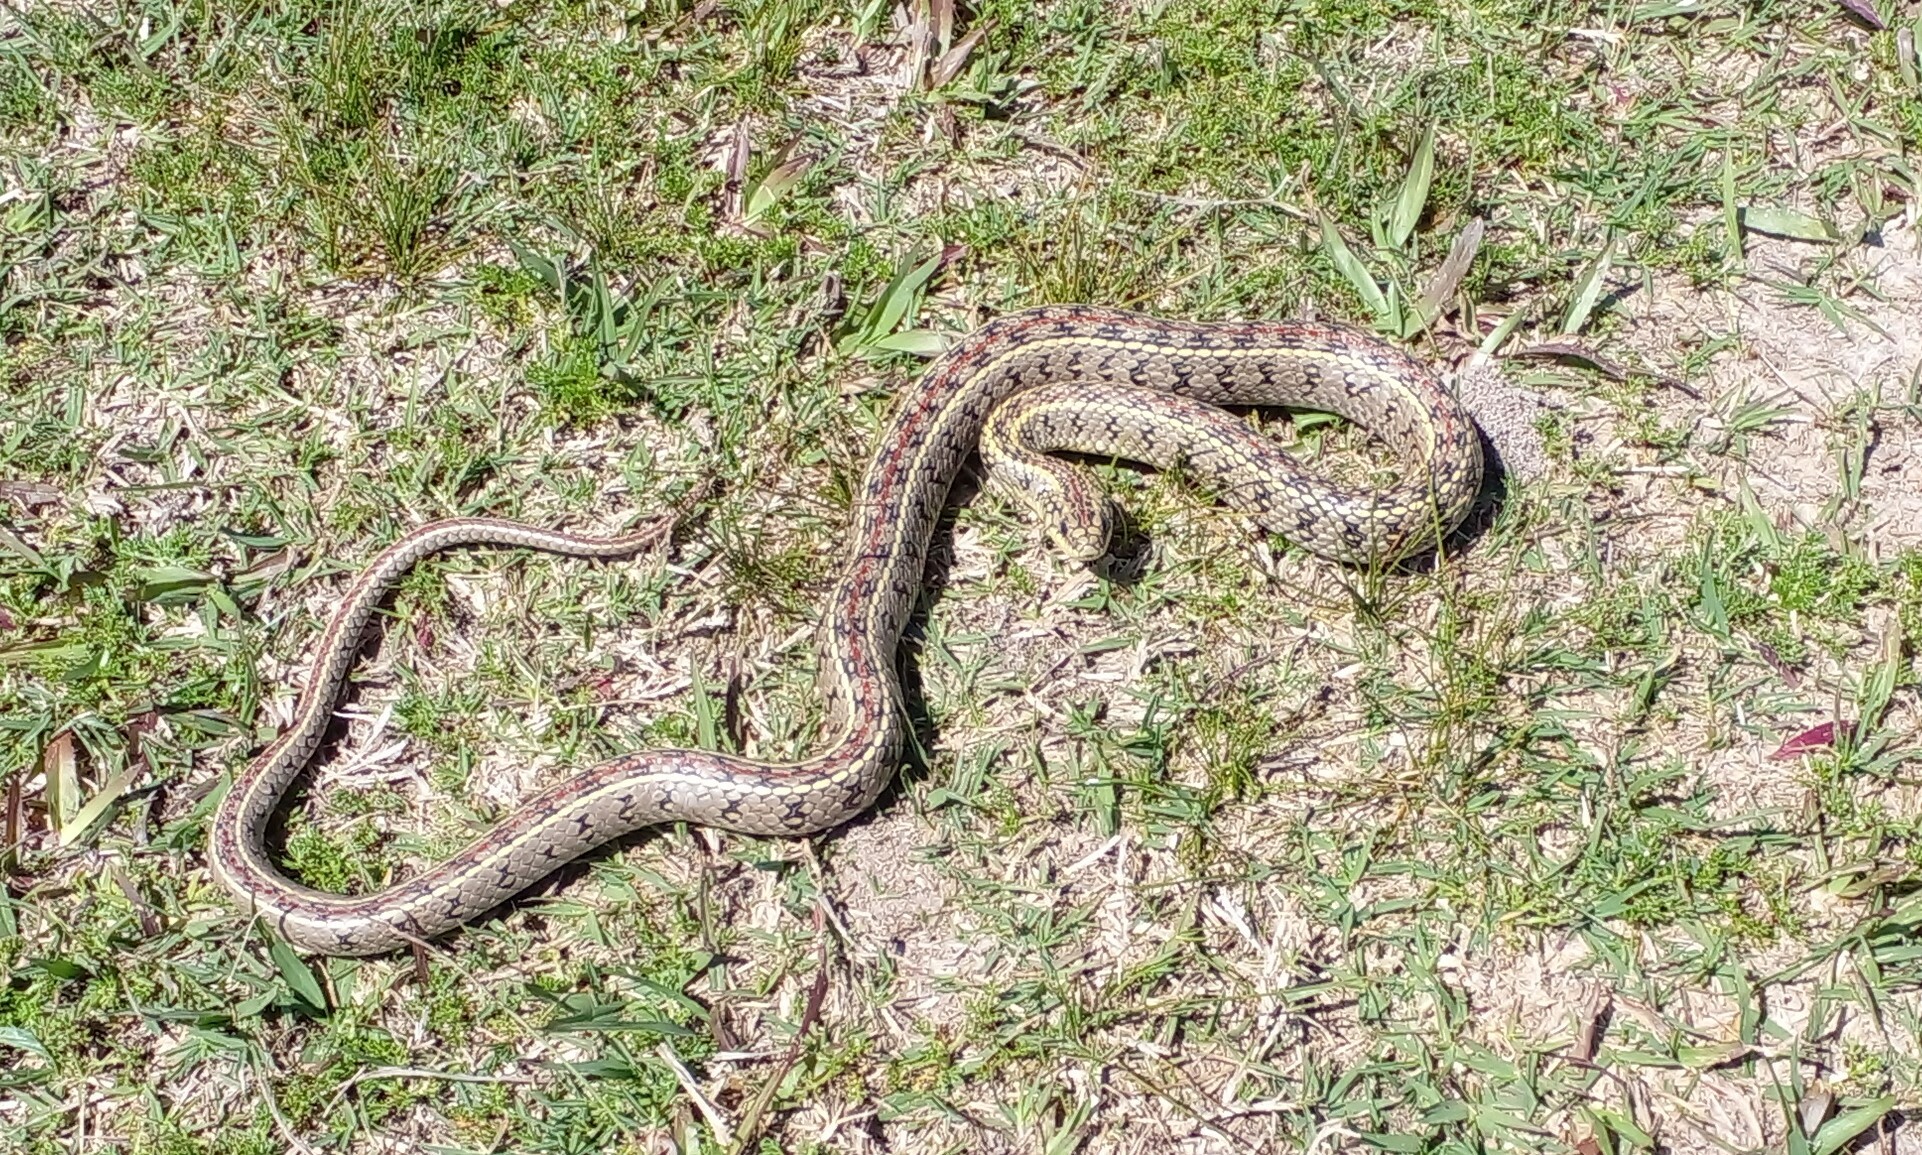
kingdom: Animalia
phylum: Chordata
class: Squamata
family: Colubridae
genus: Lygophis
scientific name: Lygophis anomalus
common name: English common name not available
